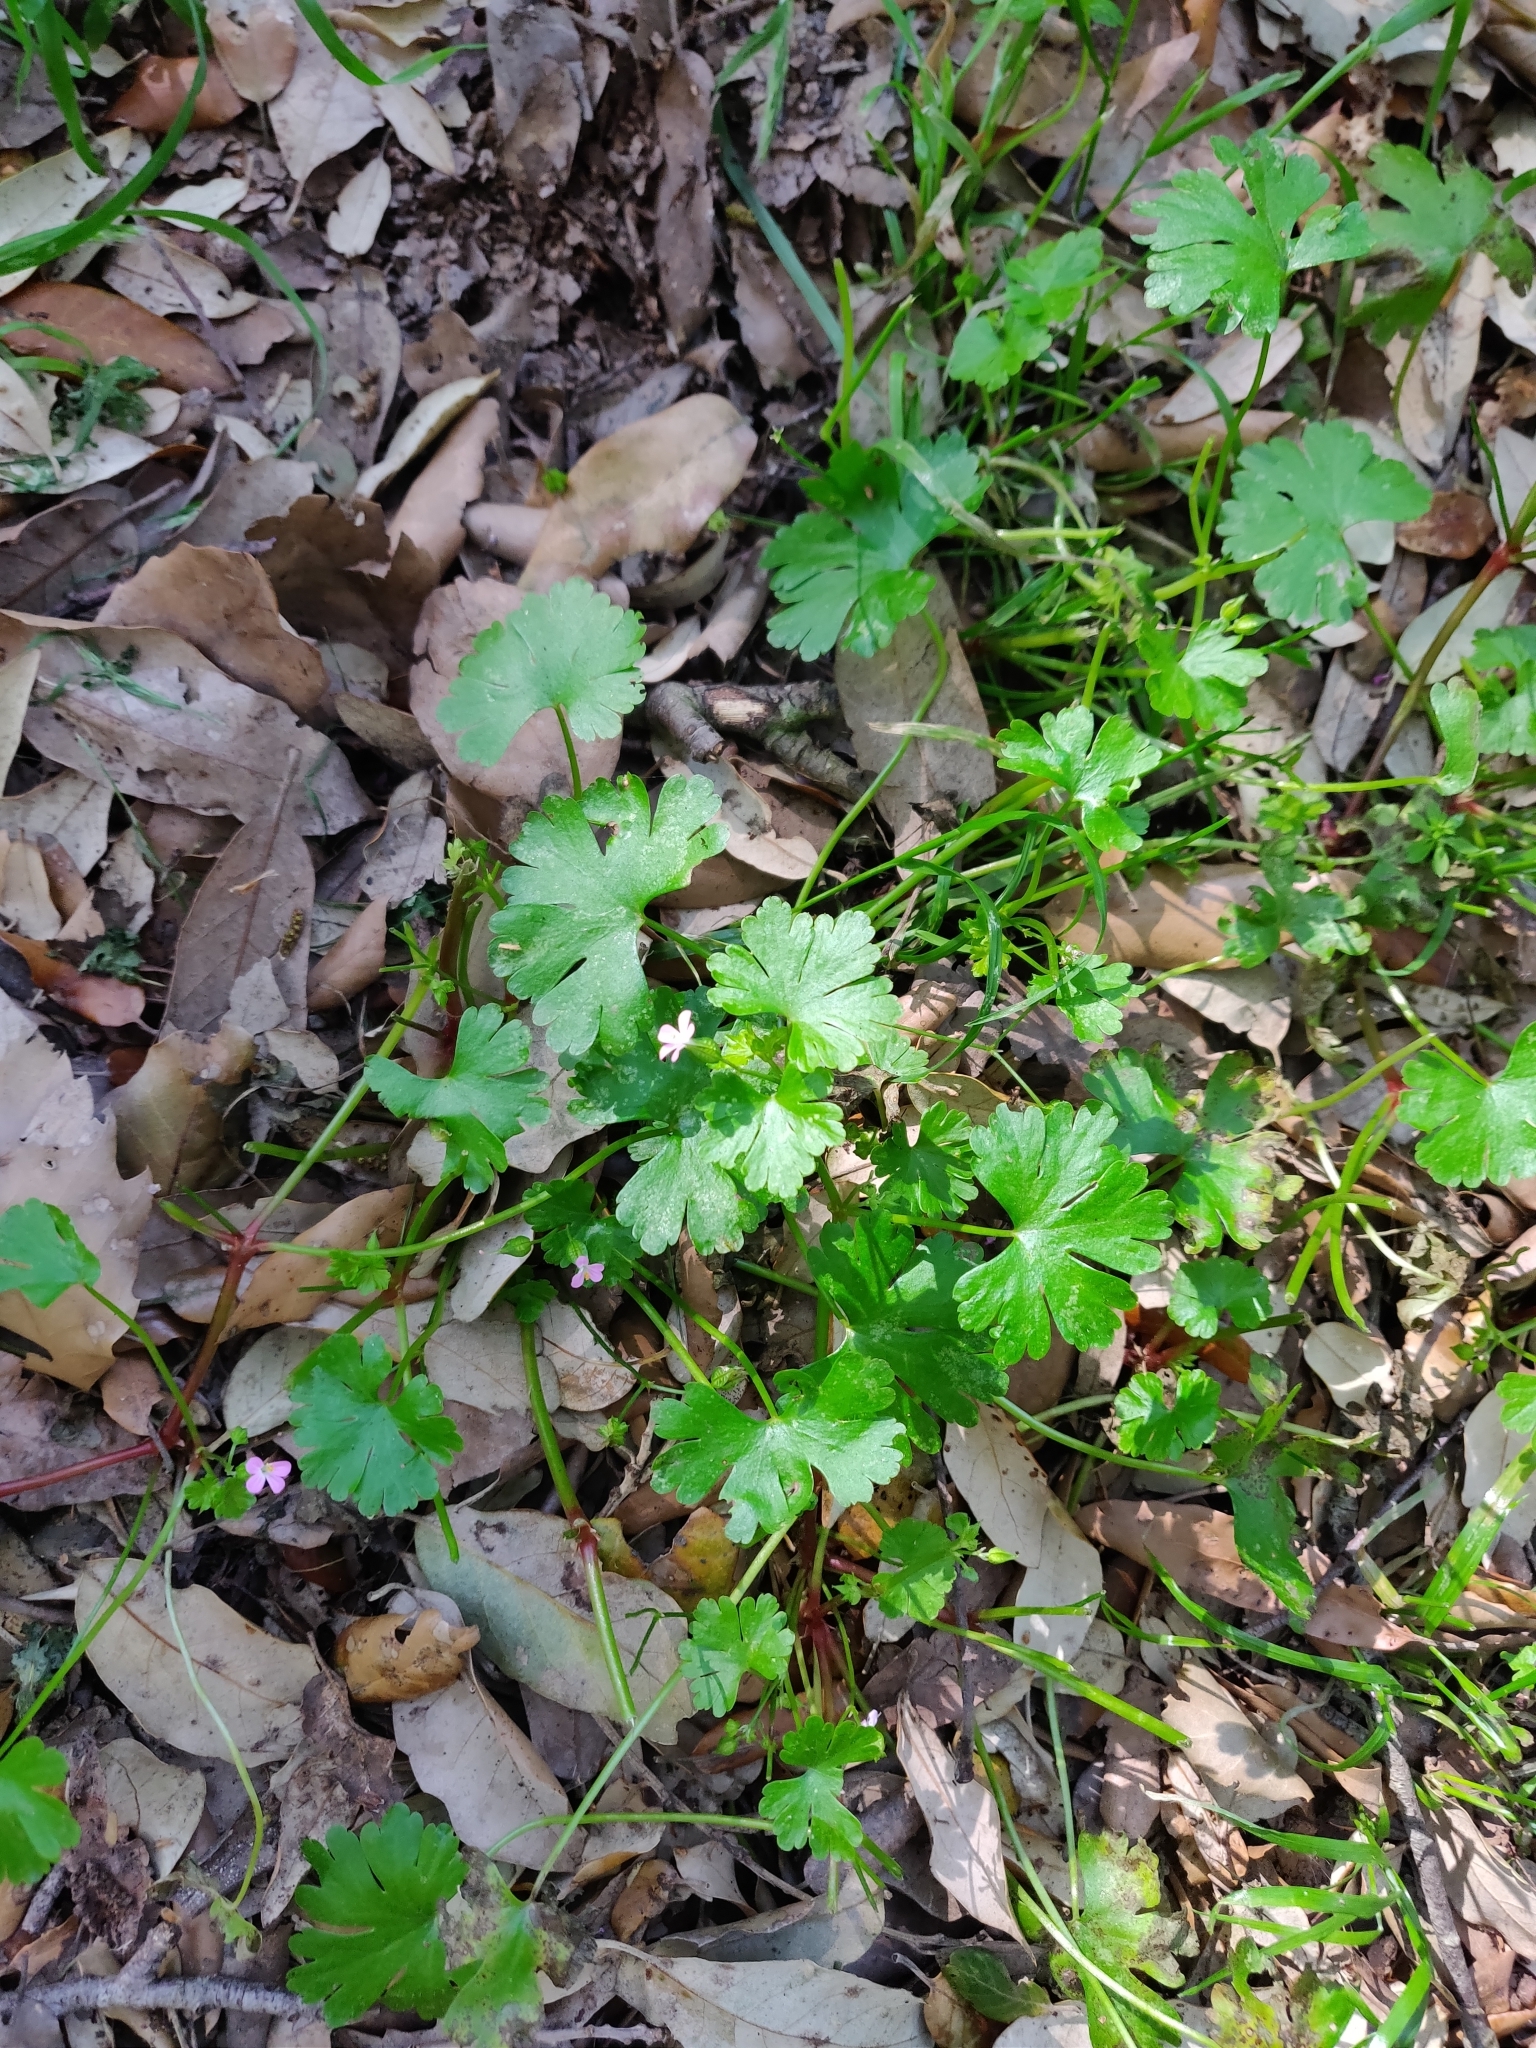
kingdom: Plantae
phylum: Tracheophyta
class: Magnoliopsida
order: Geraniales
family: Geraniaceae
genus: Geranium
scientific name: Geranium lucidum
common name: Shining crane's-bill
